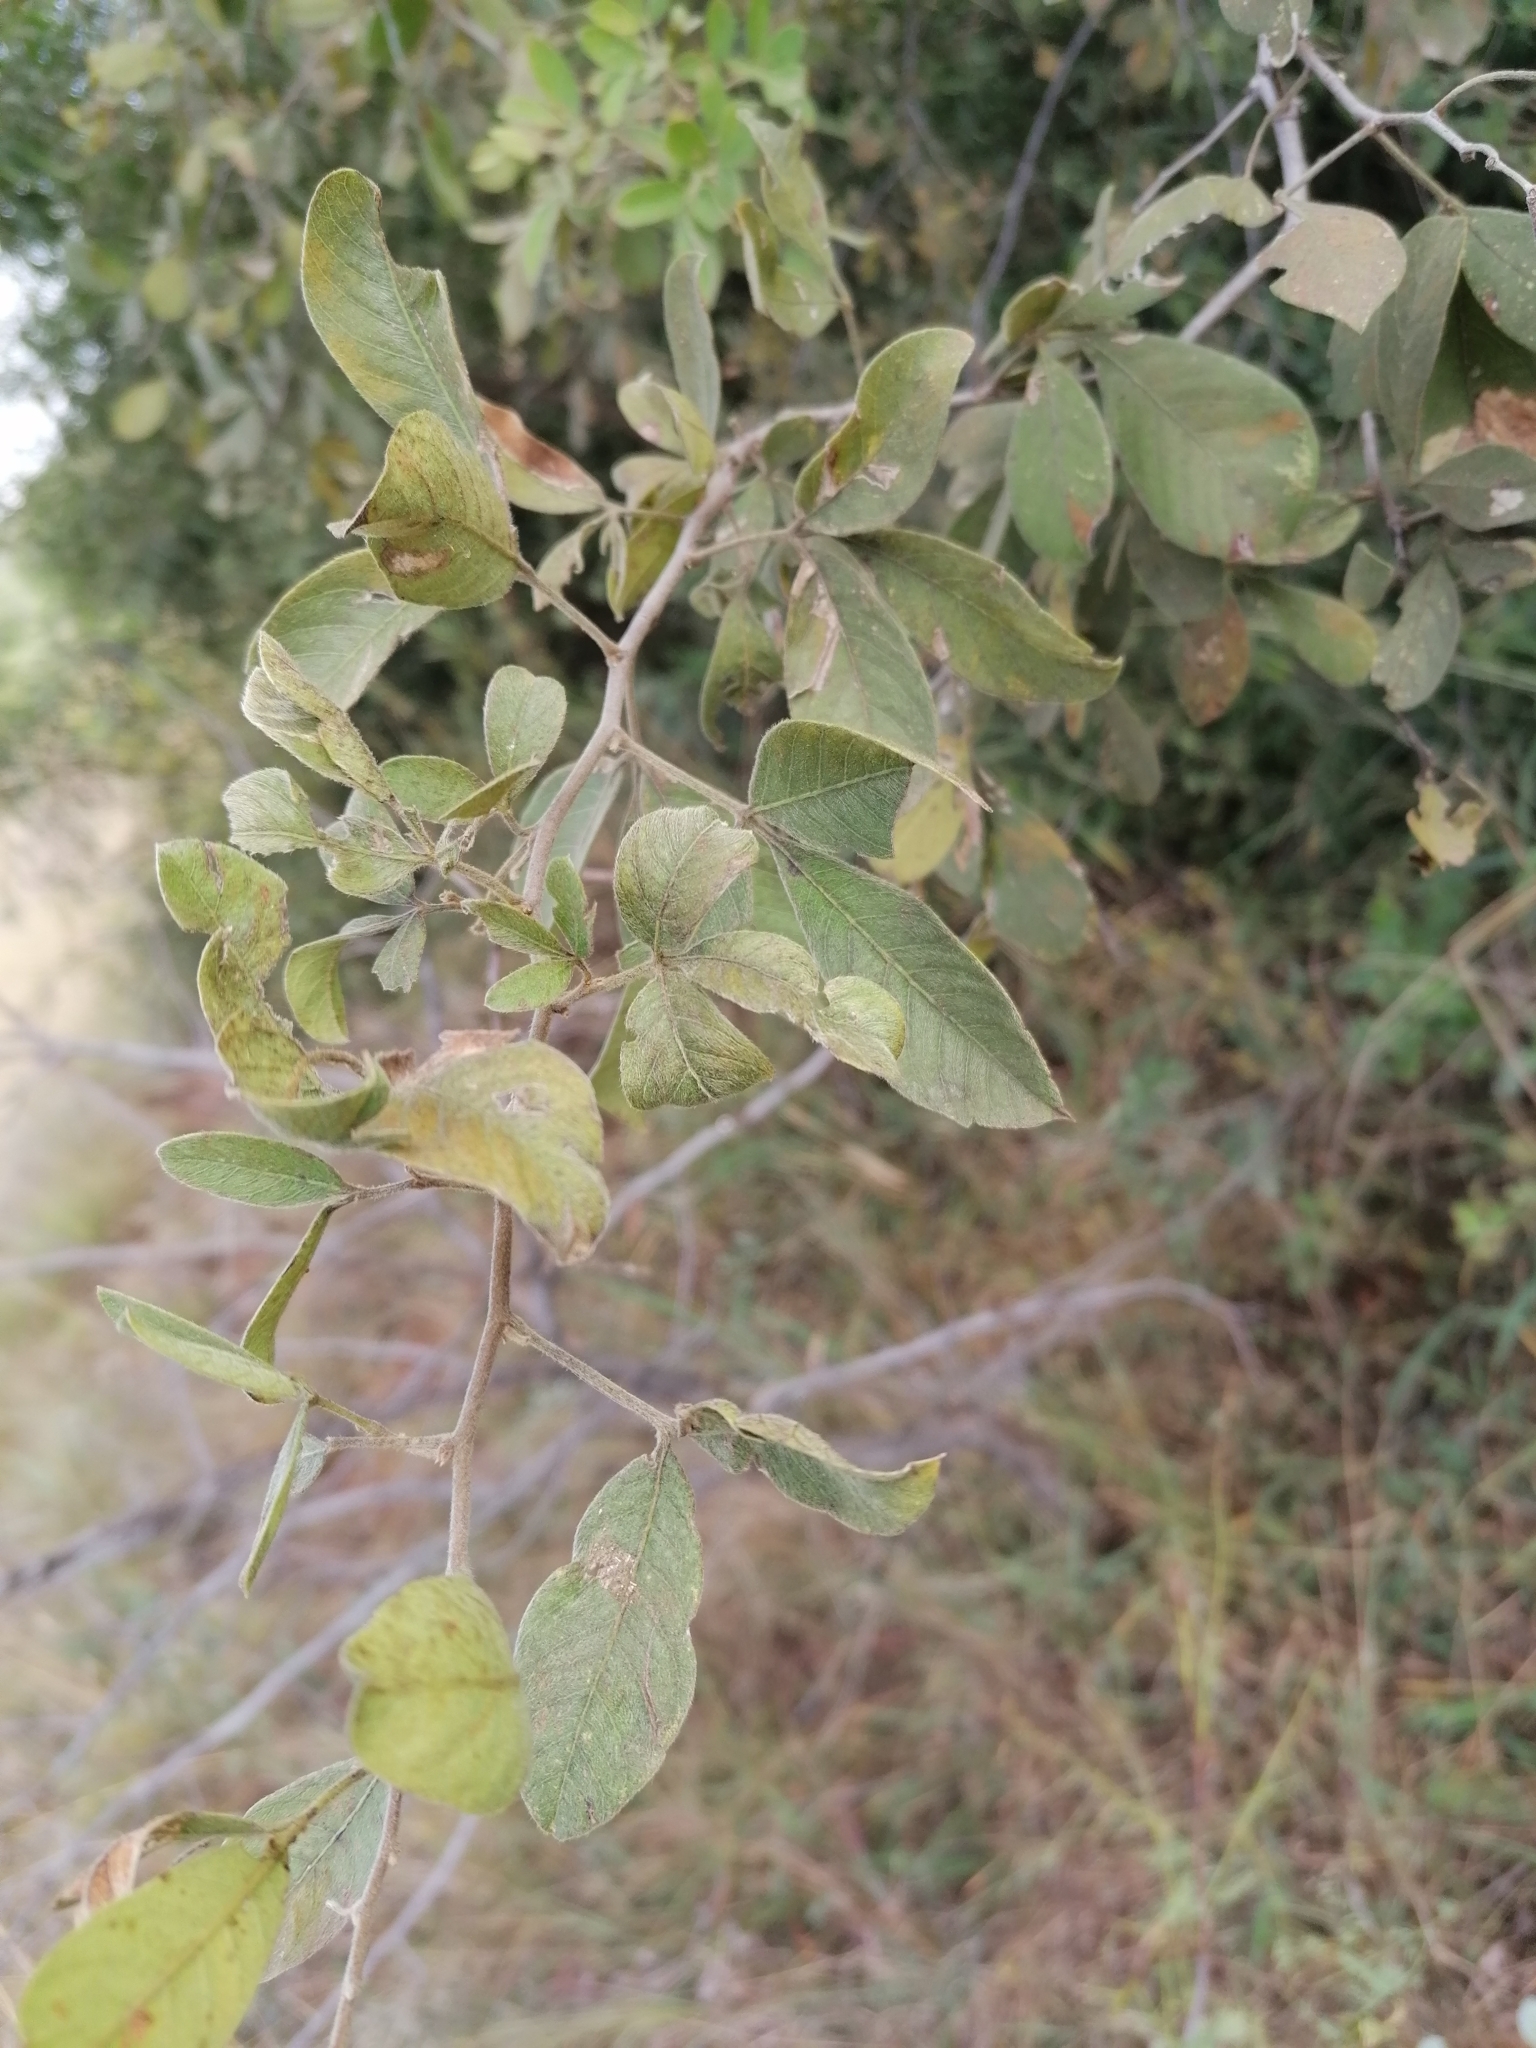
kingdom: Plantae
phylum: Tracheophyta
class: Magnoliopsida
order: Sapindales
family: Anacardiaceae
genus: Searsia
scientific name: Searsia pyroides
